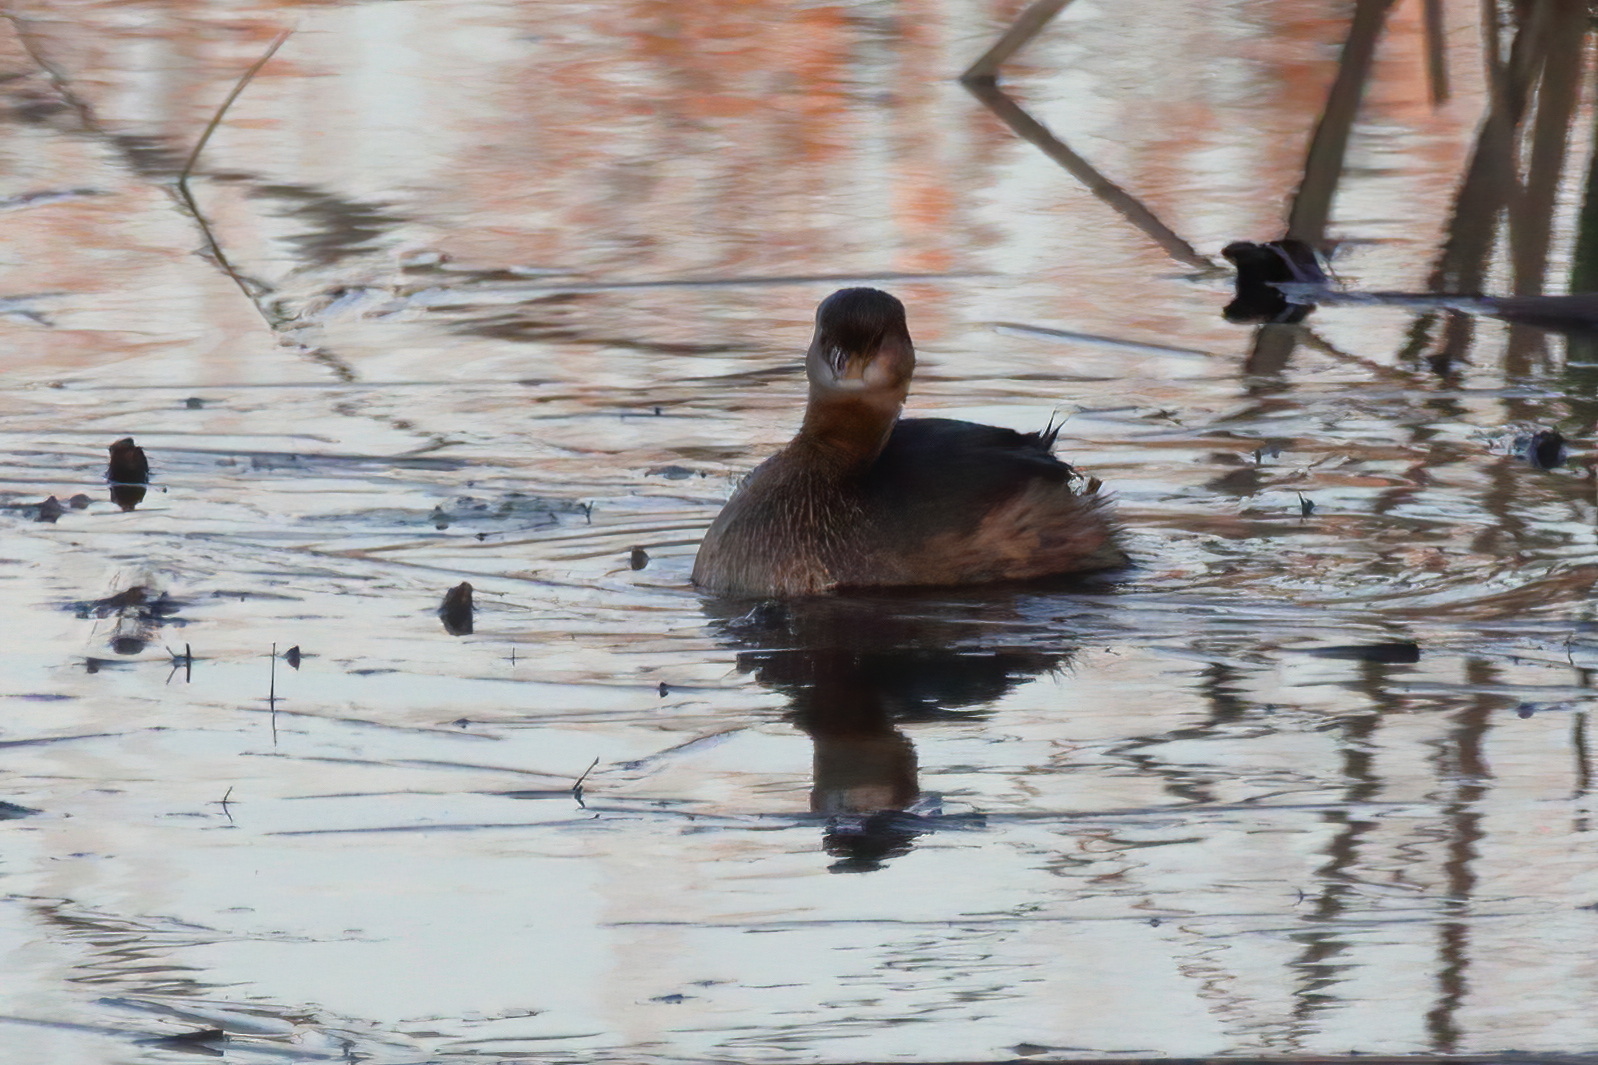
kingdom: Animalia
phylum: Chordata
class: Aves
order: Podicipediformes
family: Podicipedidae
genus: Podilymbus
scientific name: Podilymbus podiceps
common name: Pied-billed grebe
